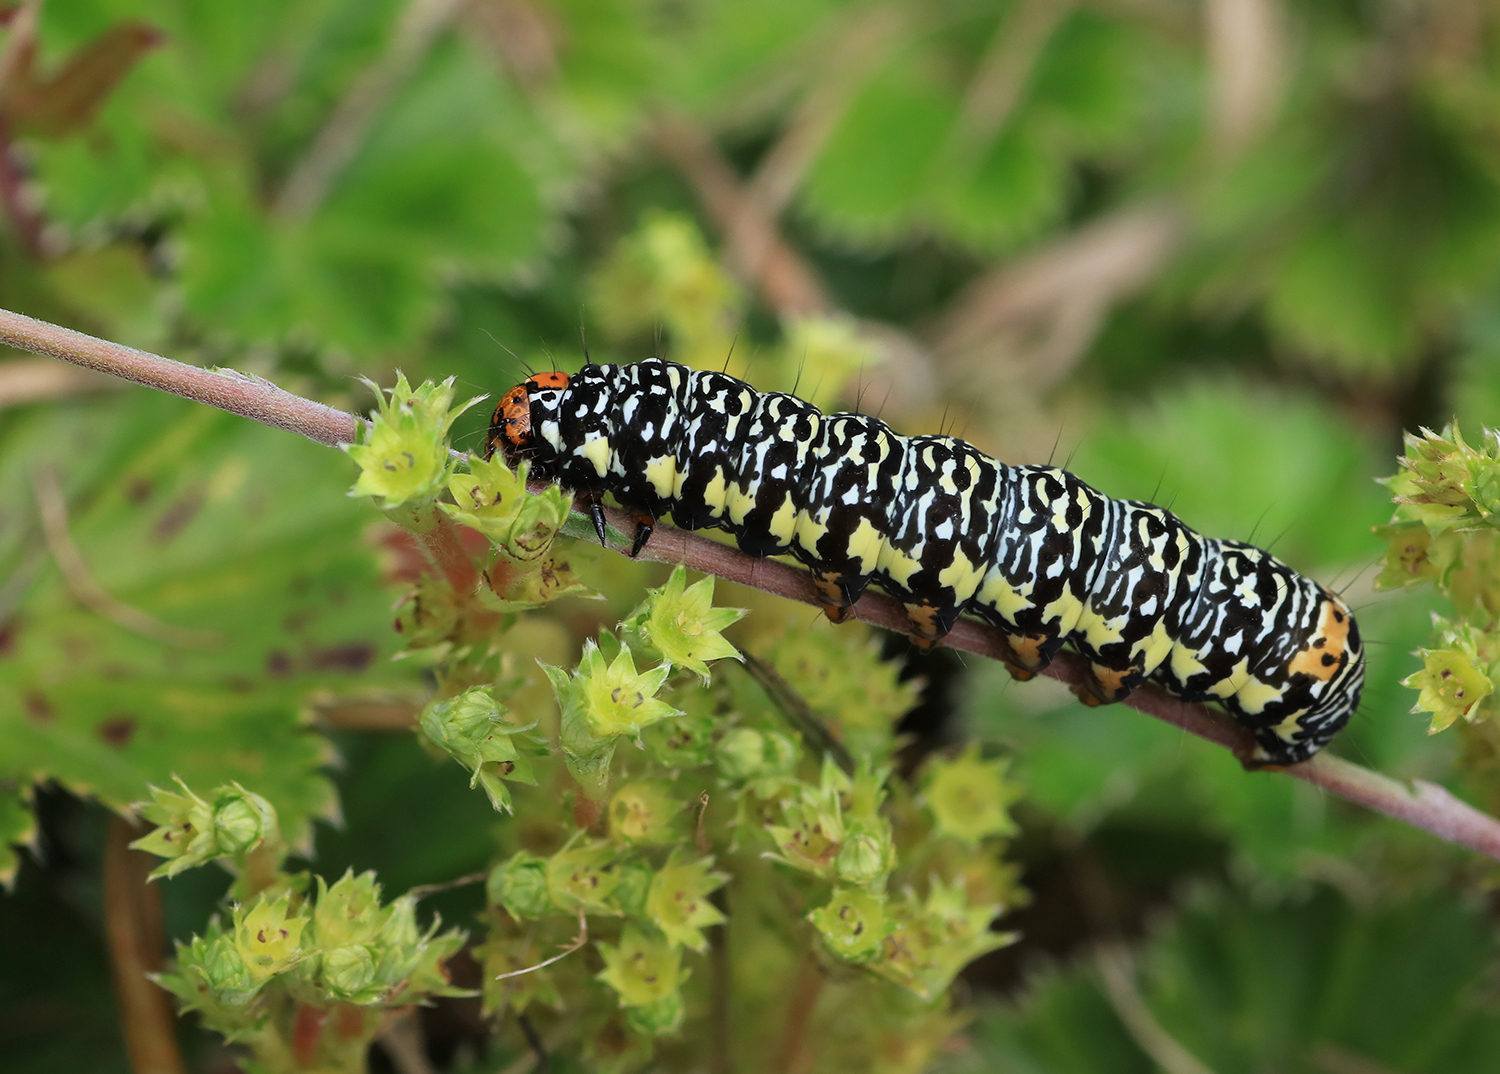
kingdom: Animalia
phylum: Arthropoda
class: Insecta
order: Lepidoptera
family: Noctuidae
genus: Phalaenoides
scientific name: Phalaenoides tristifica
